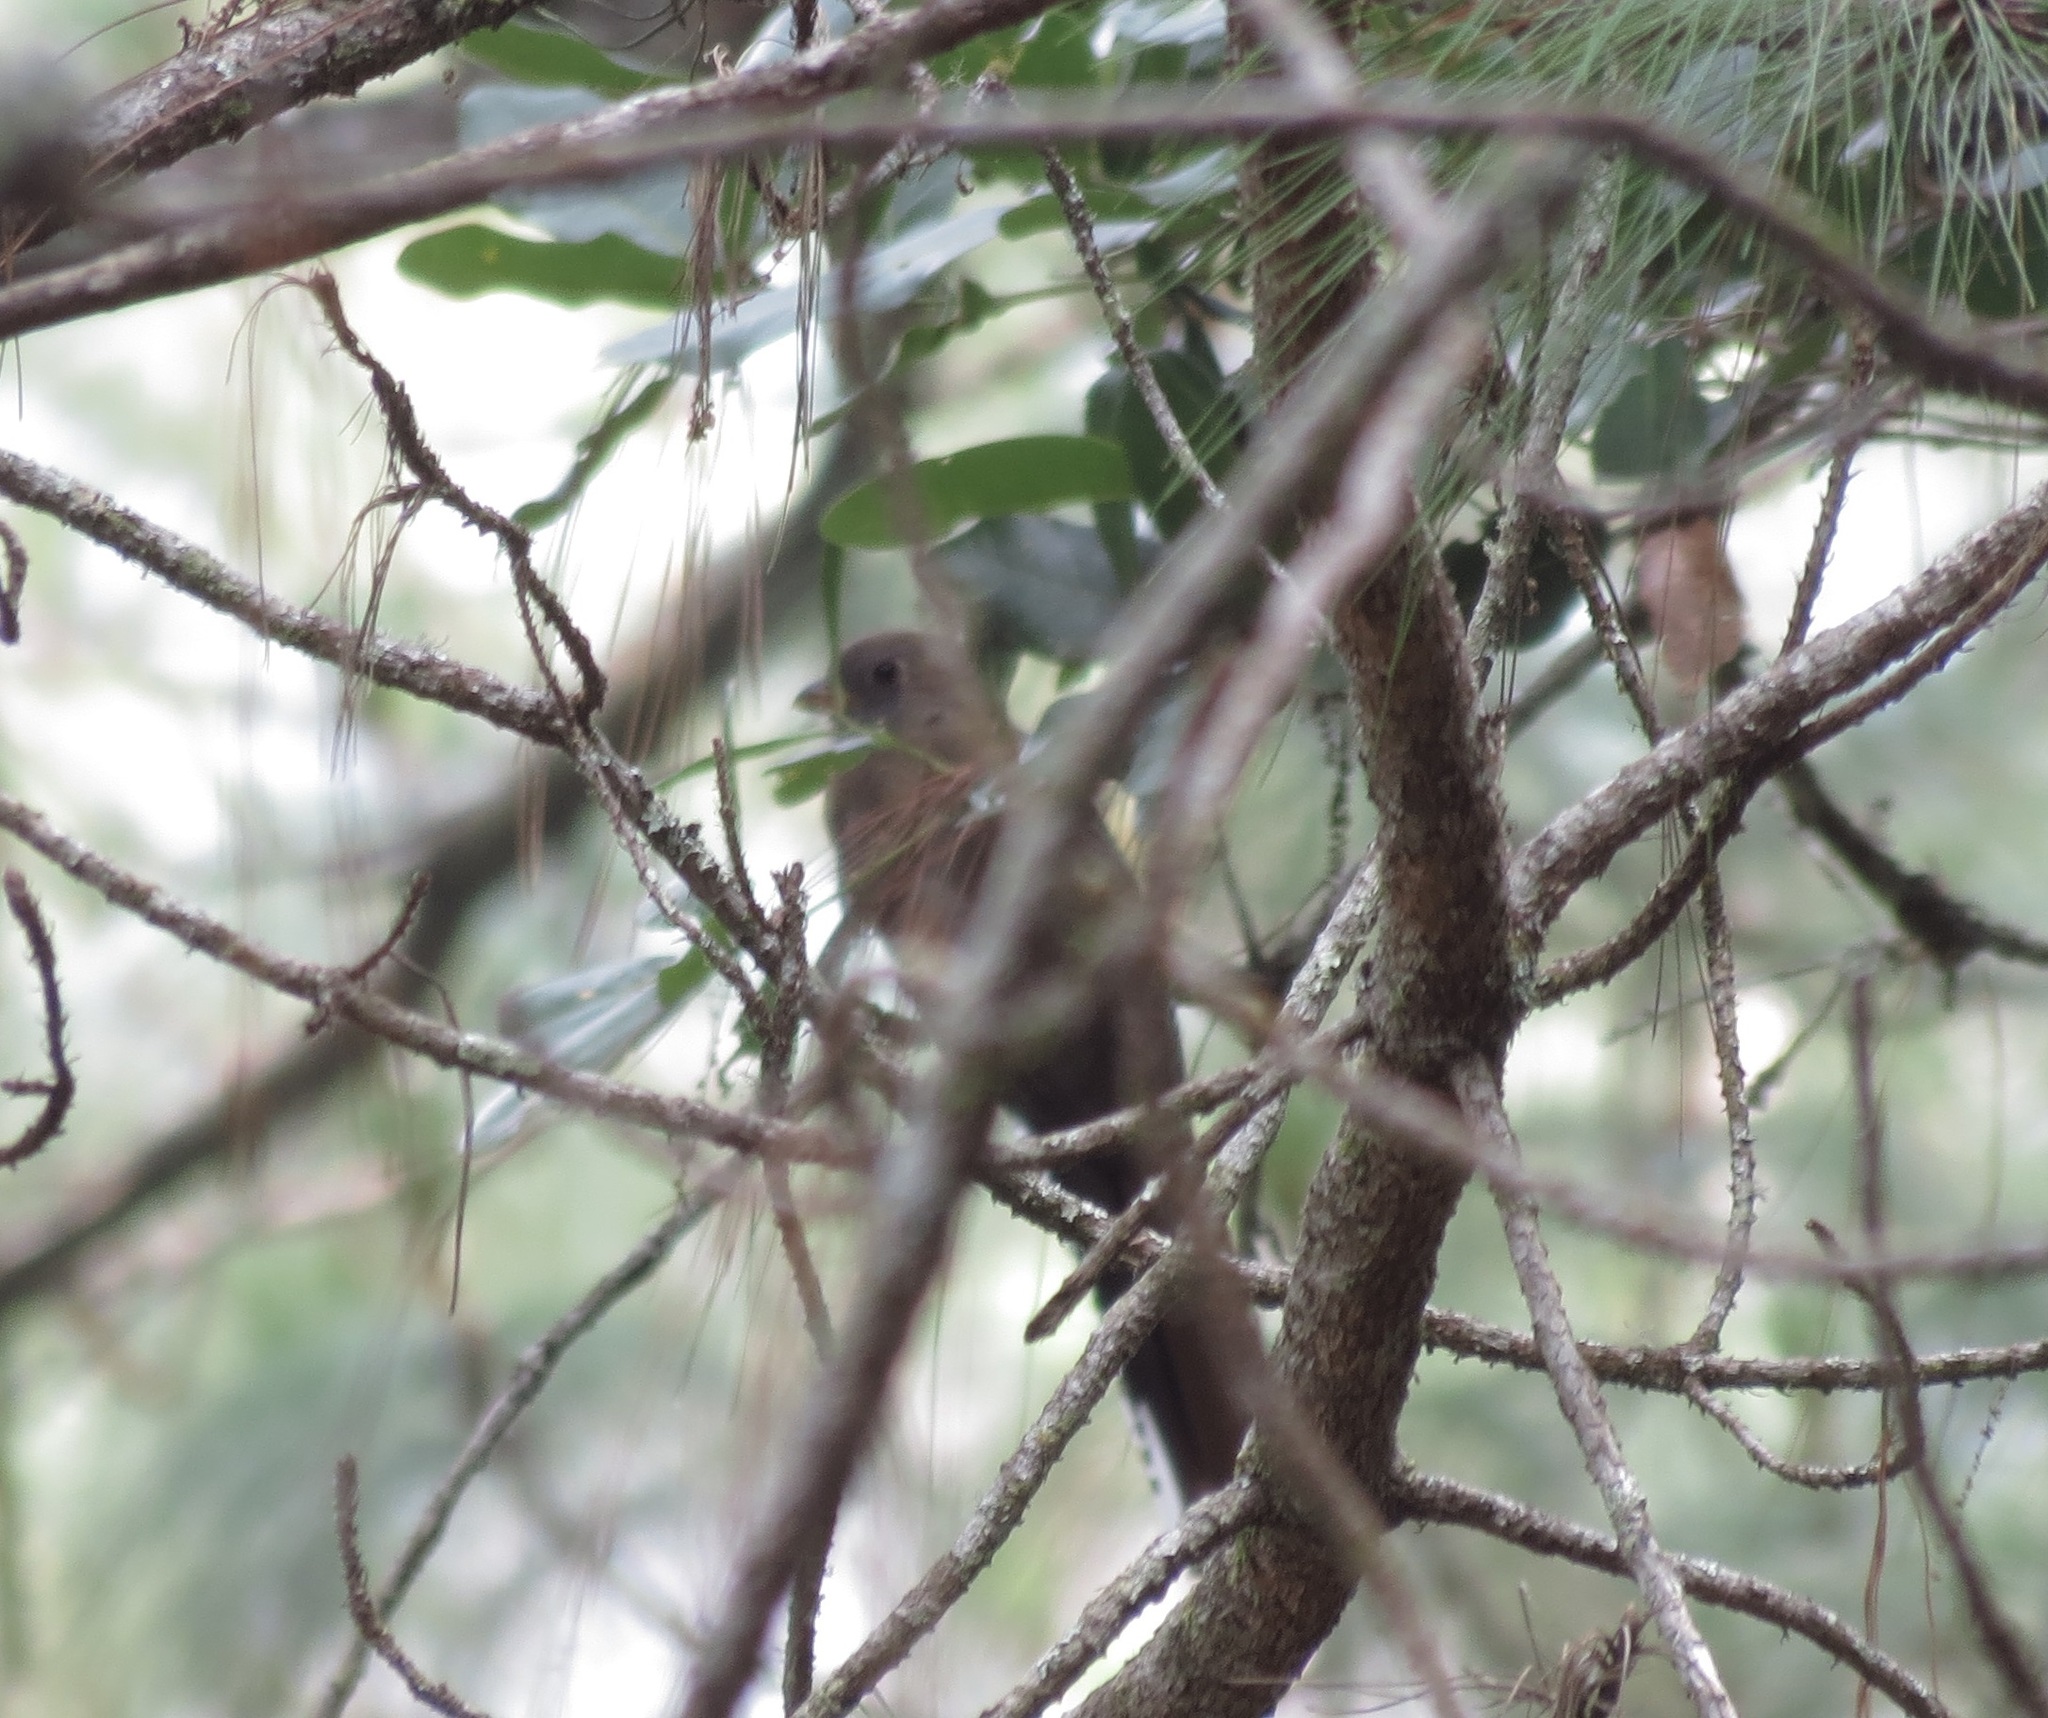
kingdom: Animalia
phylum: Chordata
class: Aves
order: Trogoniformes
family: Trogonidae
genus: Trogon
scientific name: Trogon mexicanus
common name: Mountain trogon
